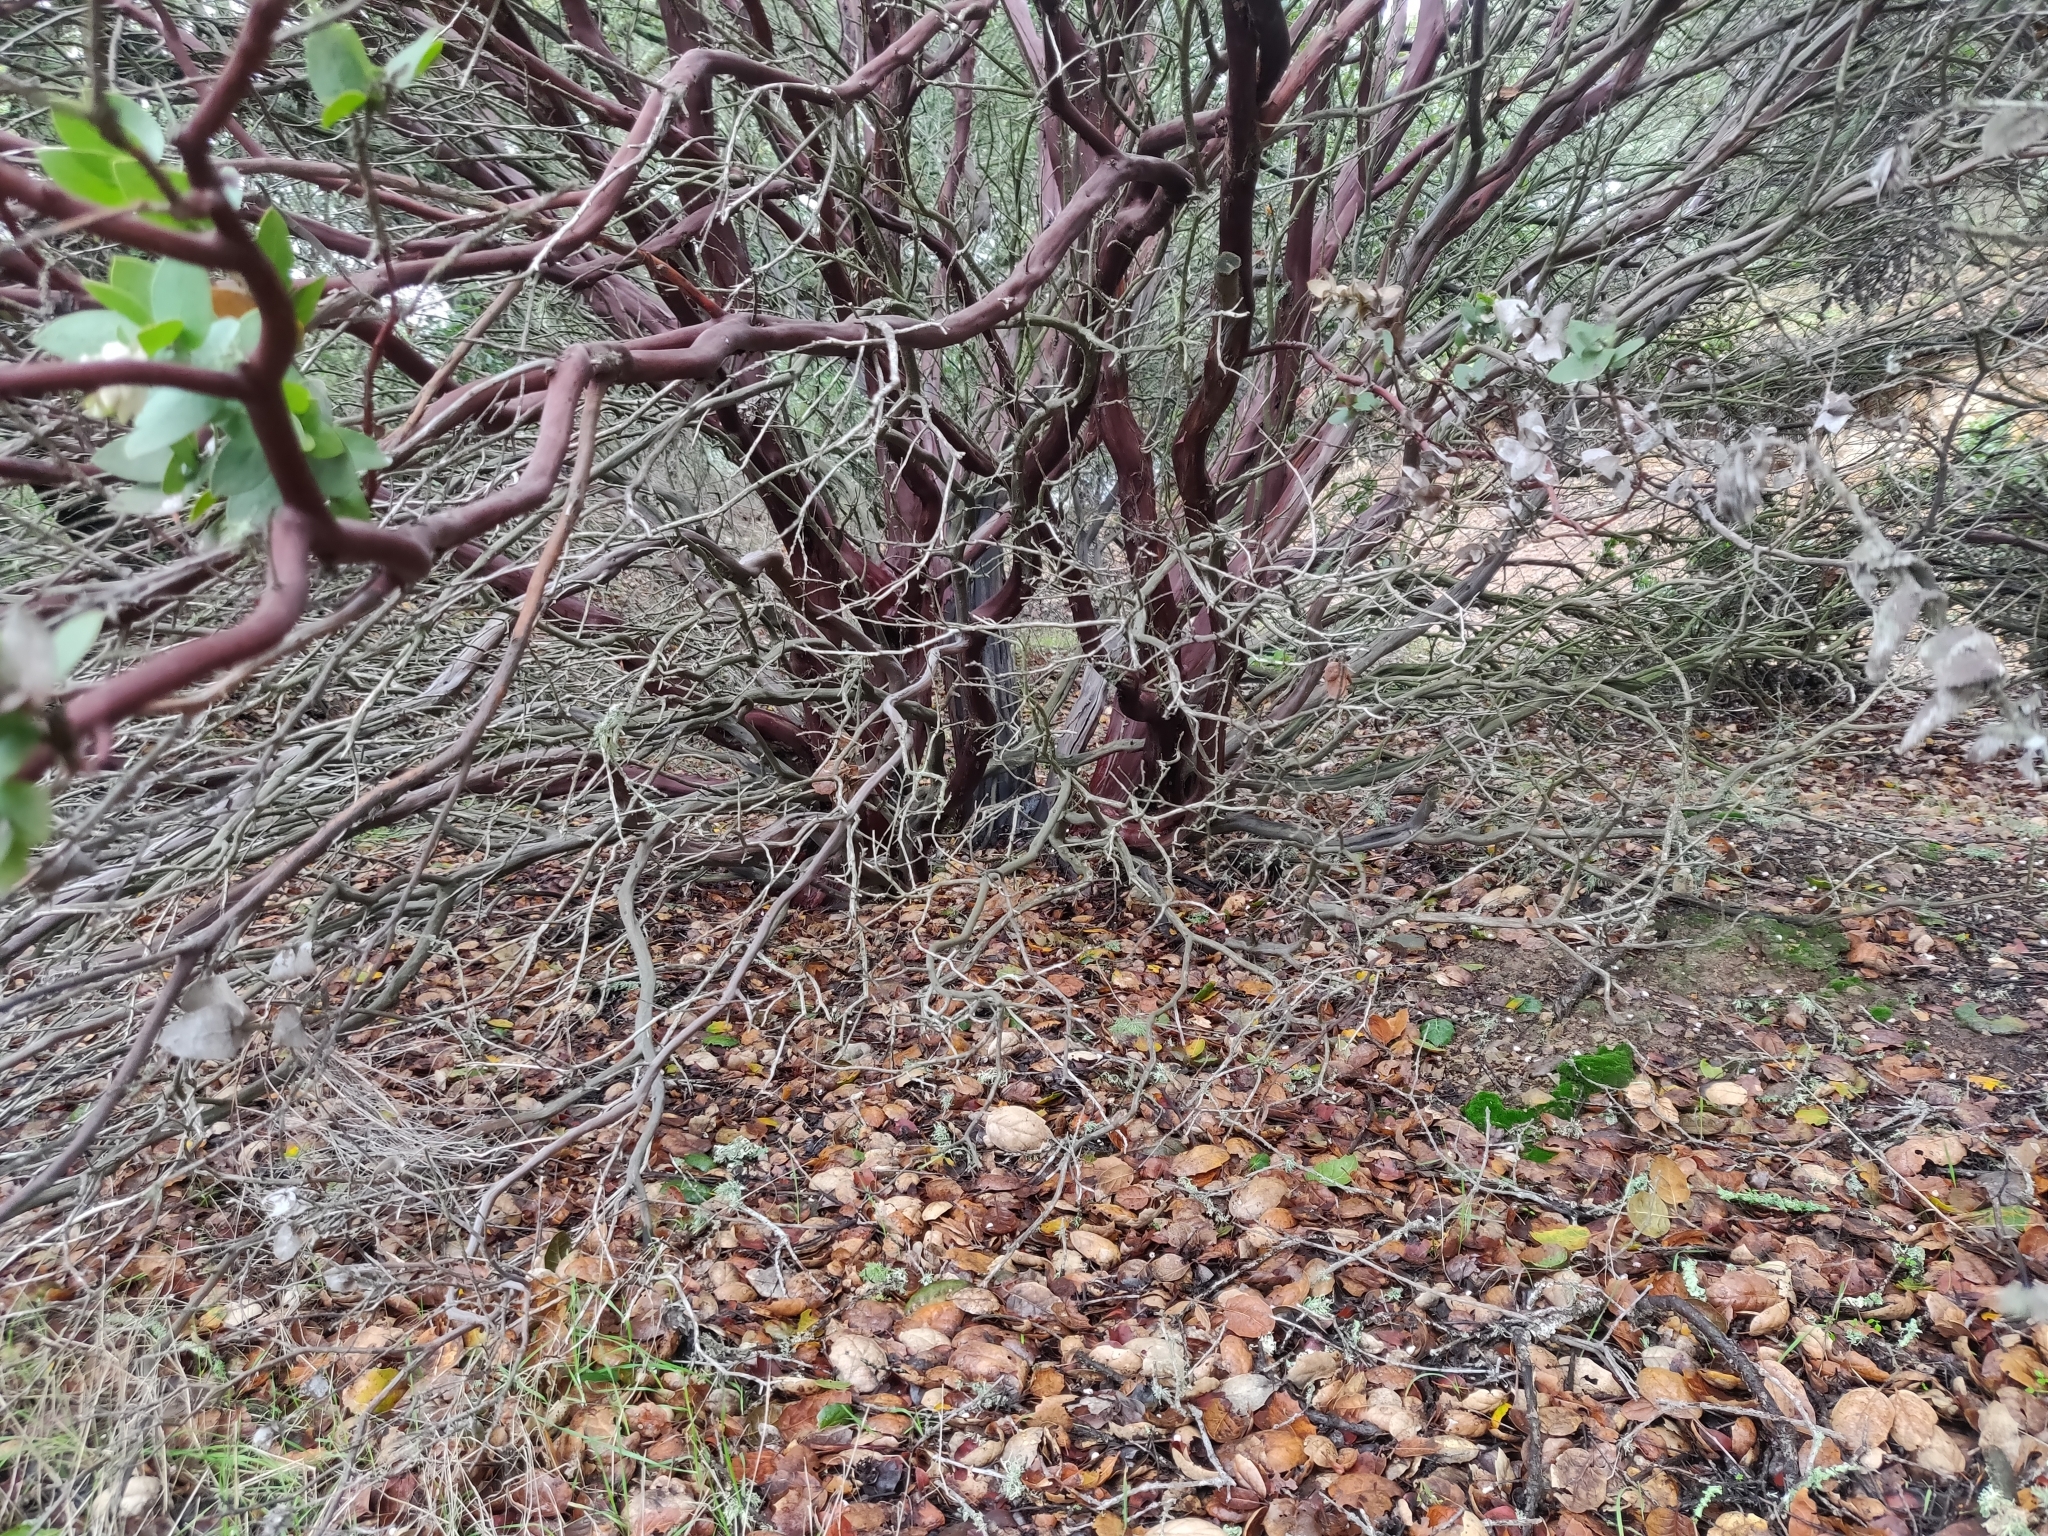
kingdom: Plantae
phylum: Tracheophyta
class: Magnoliopsida
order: Ericales
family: Ericaceae
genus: Arctostaphylos
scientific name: Arctostaphylos pallida
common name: Pallid manzanita
